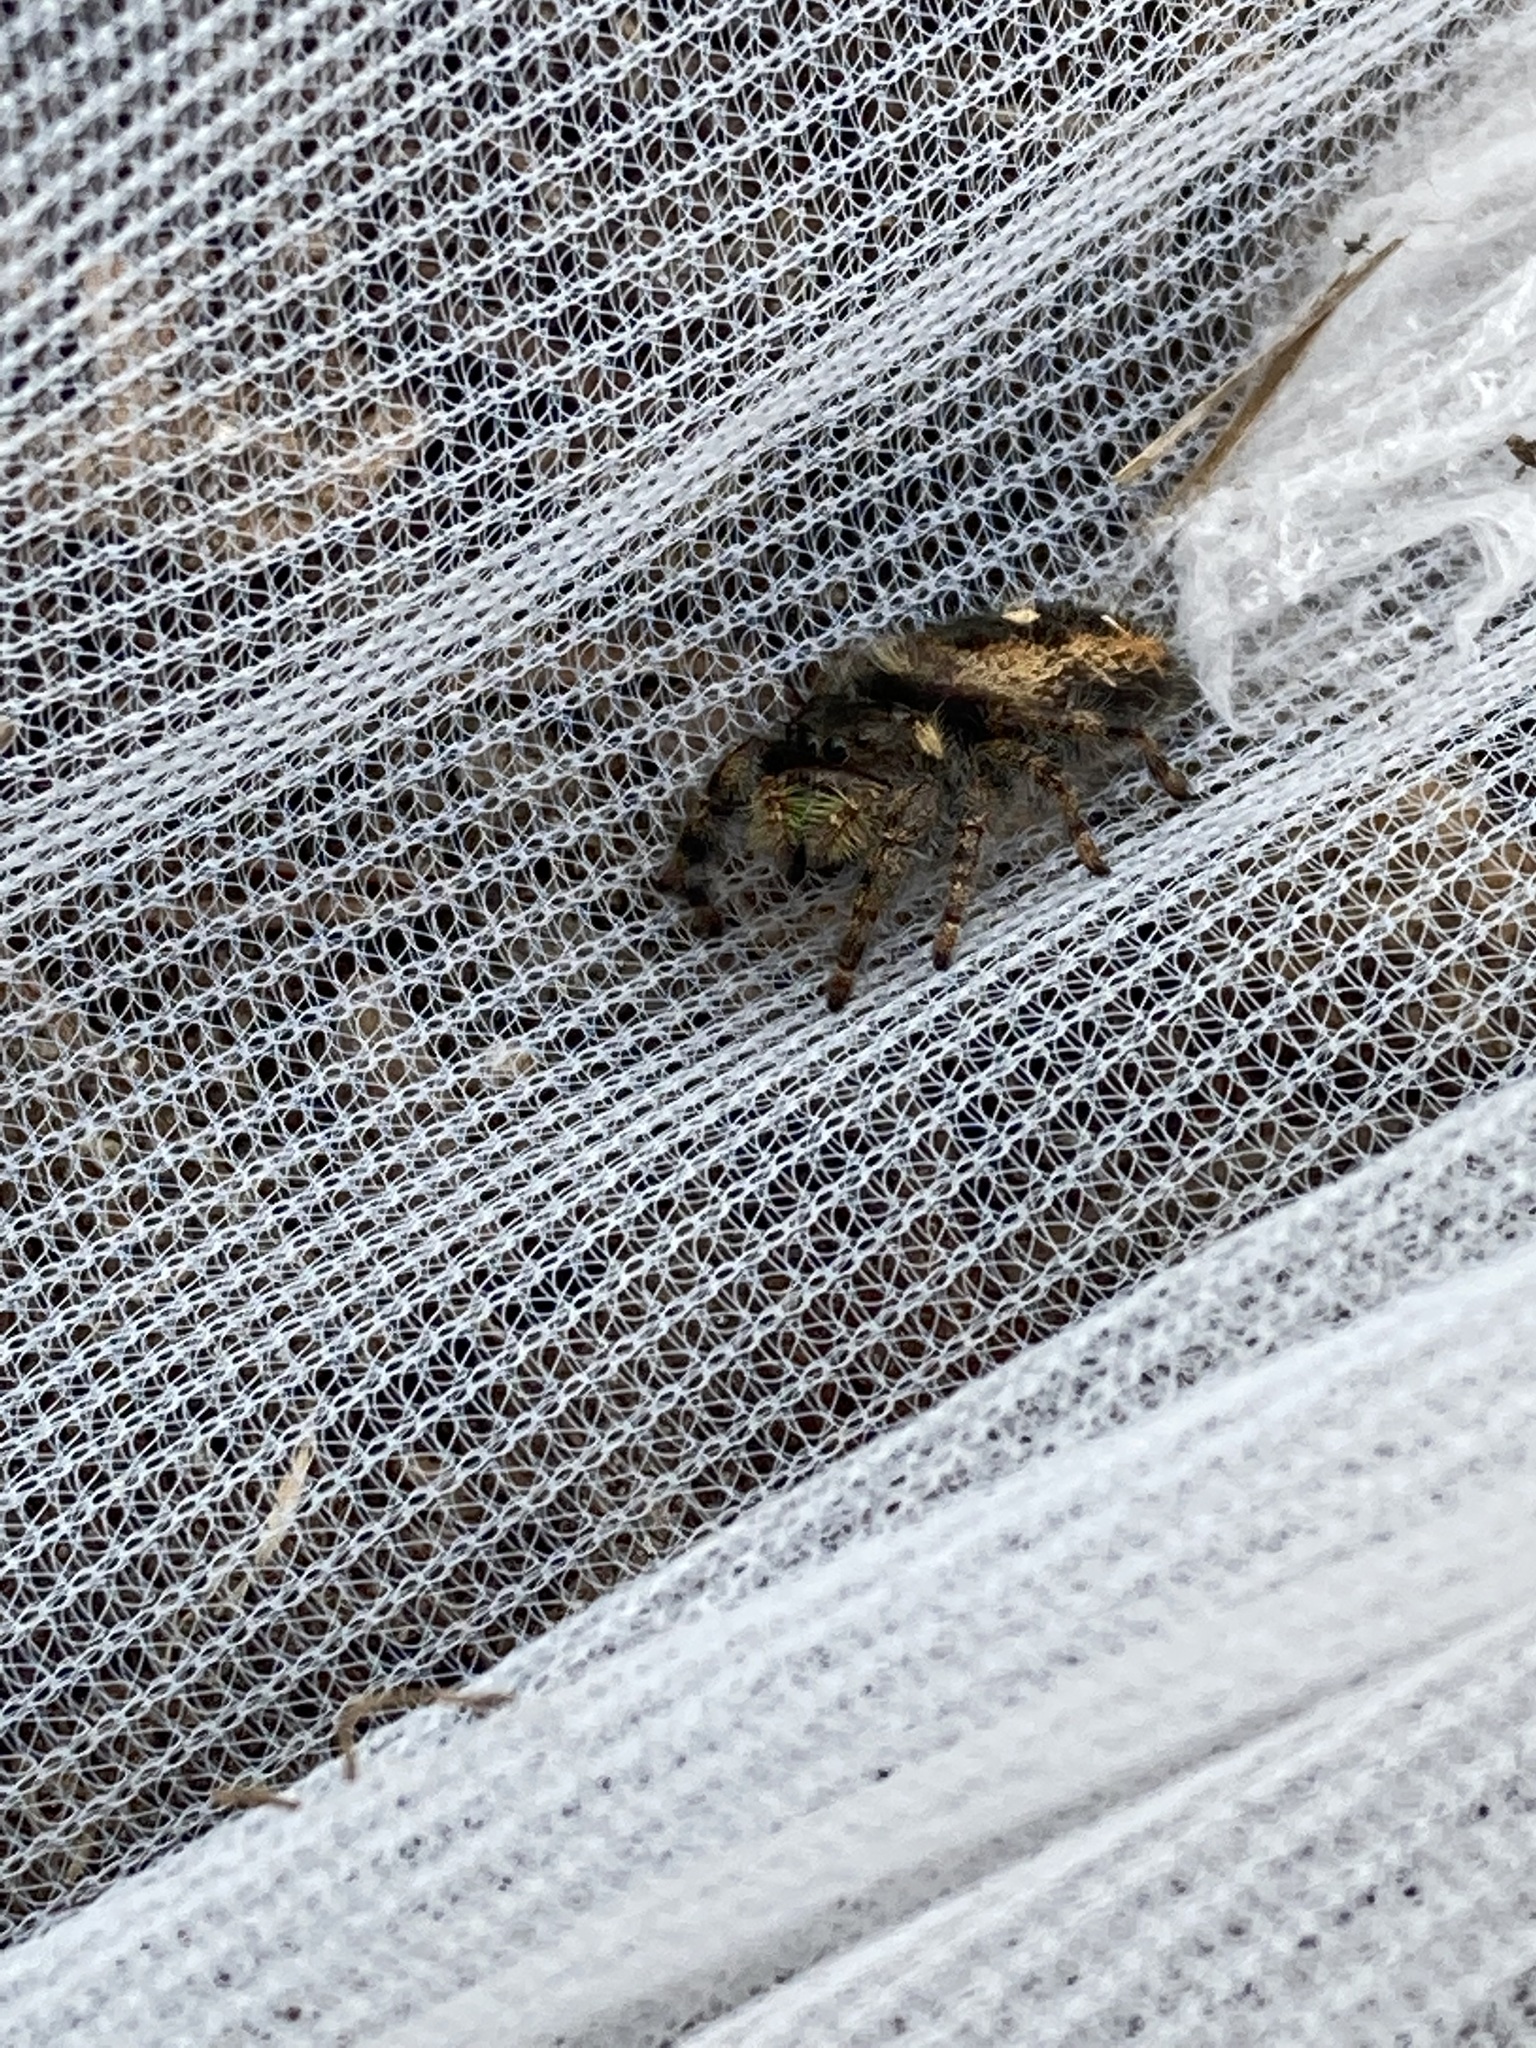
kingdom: Animalia
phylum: Arthropoda
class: Arachnida
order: Araneae
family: Salticidae
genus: Phidippus
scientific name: Phidippus audax
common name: Bold jumper
